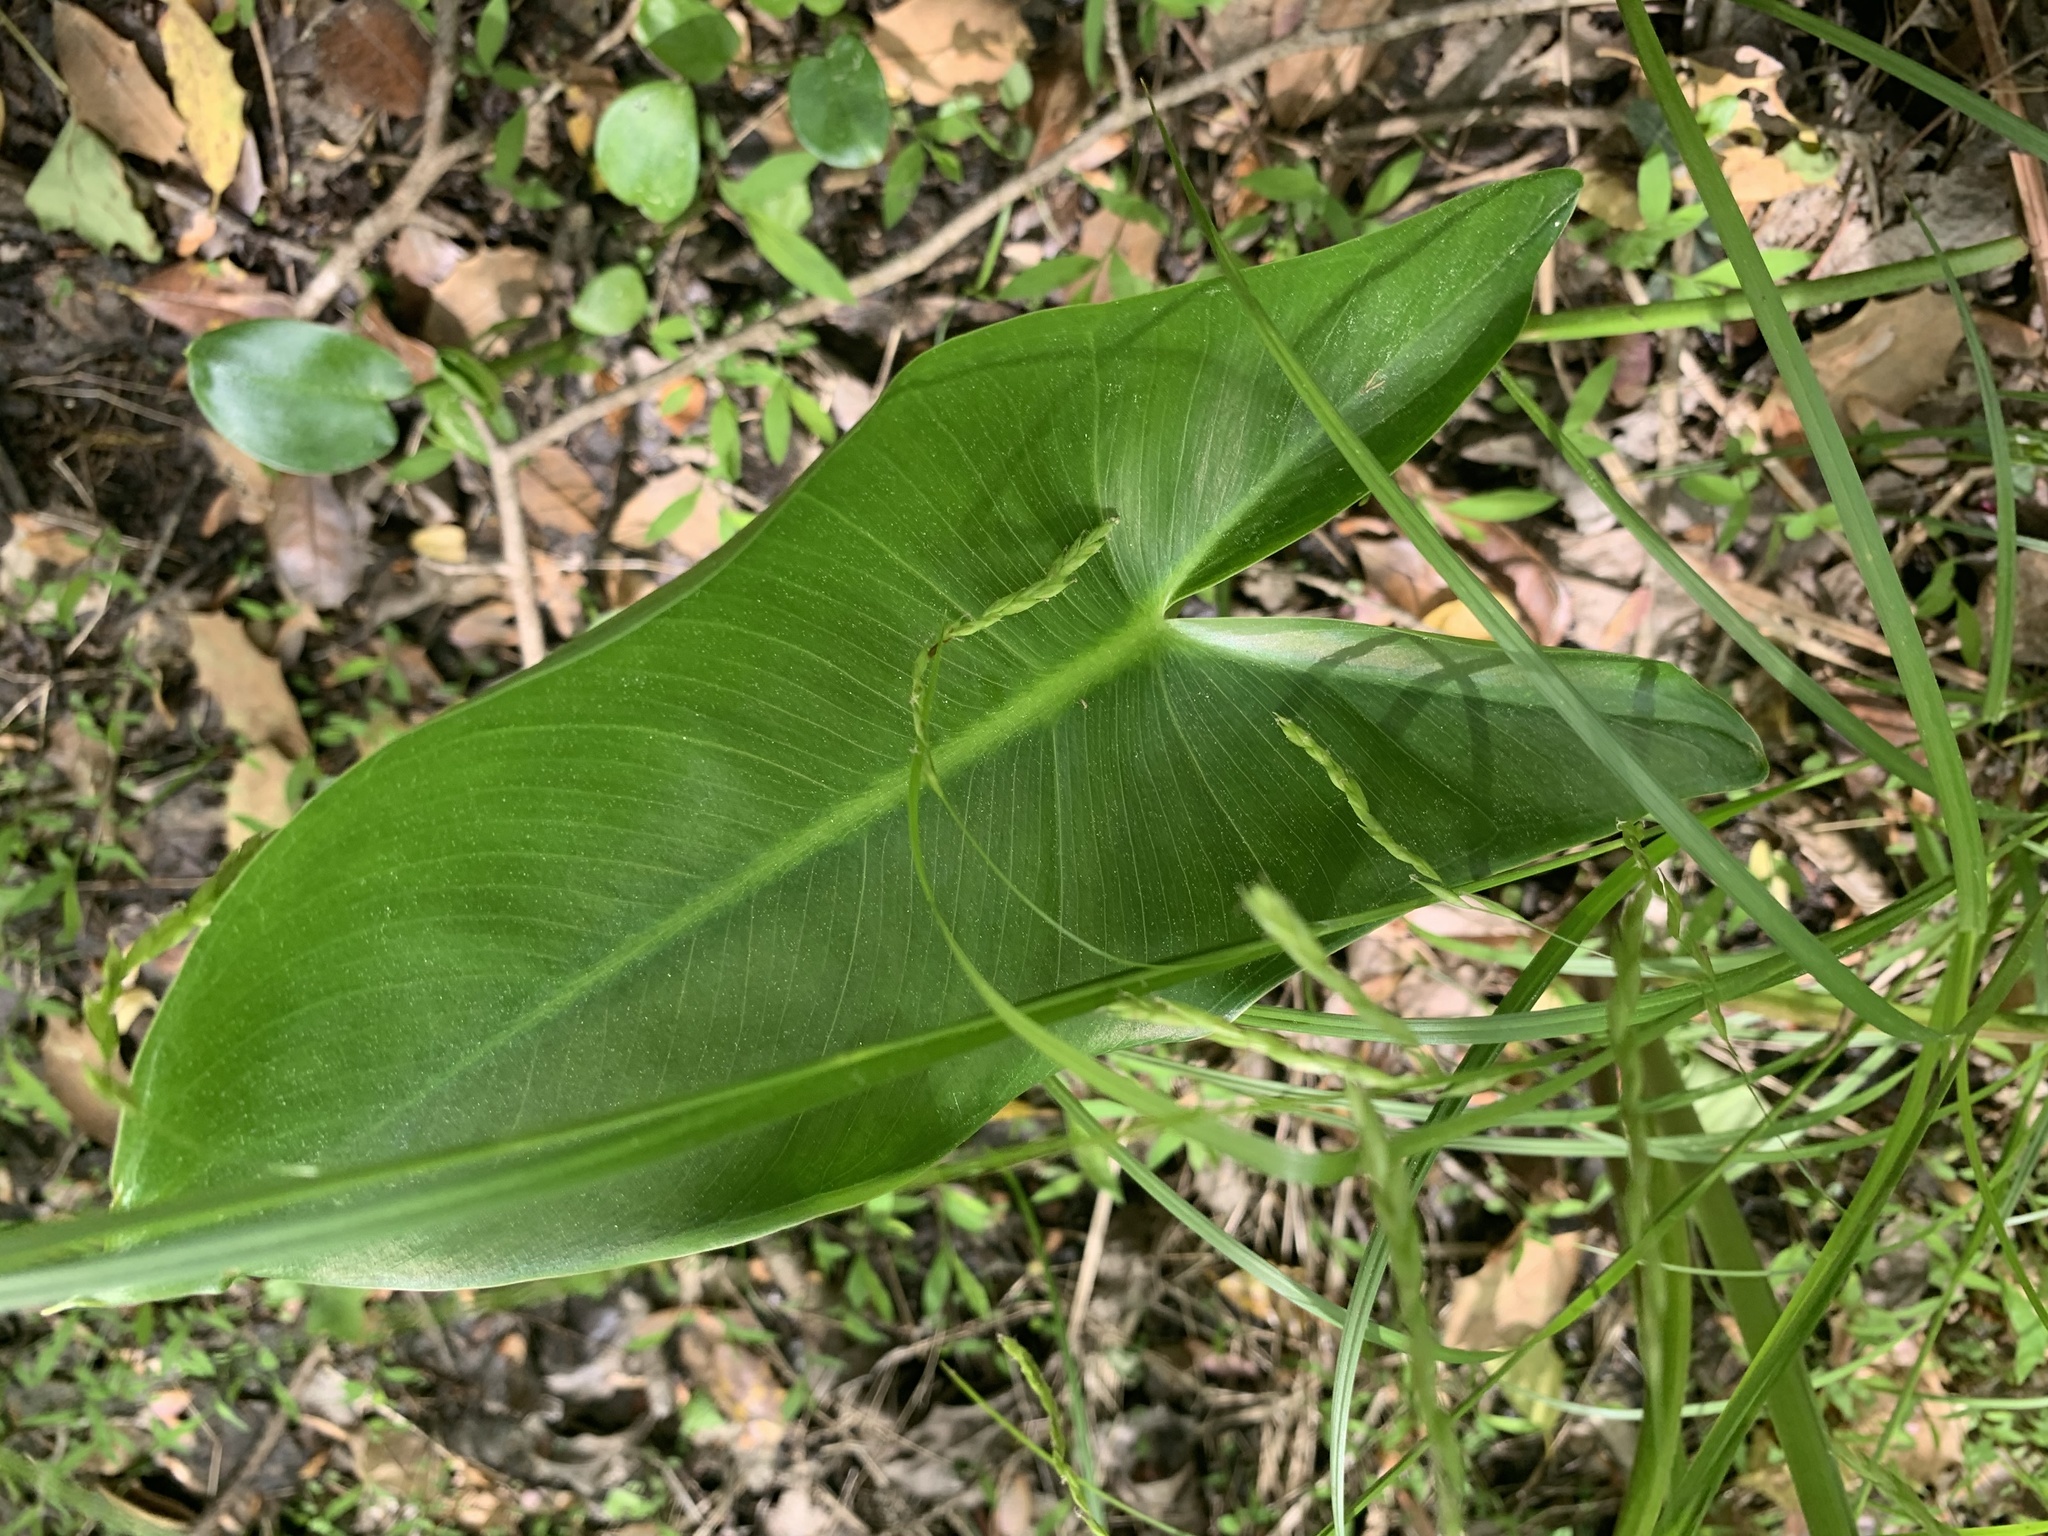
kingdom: Plantae
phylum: Tracheophyta
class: Liliopsida
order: Alismatales
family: Araceae
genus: Peltandra
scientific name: Peltandra virginica
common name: Arrow arum
